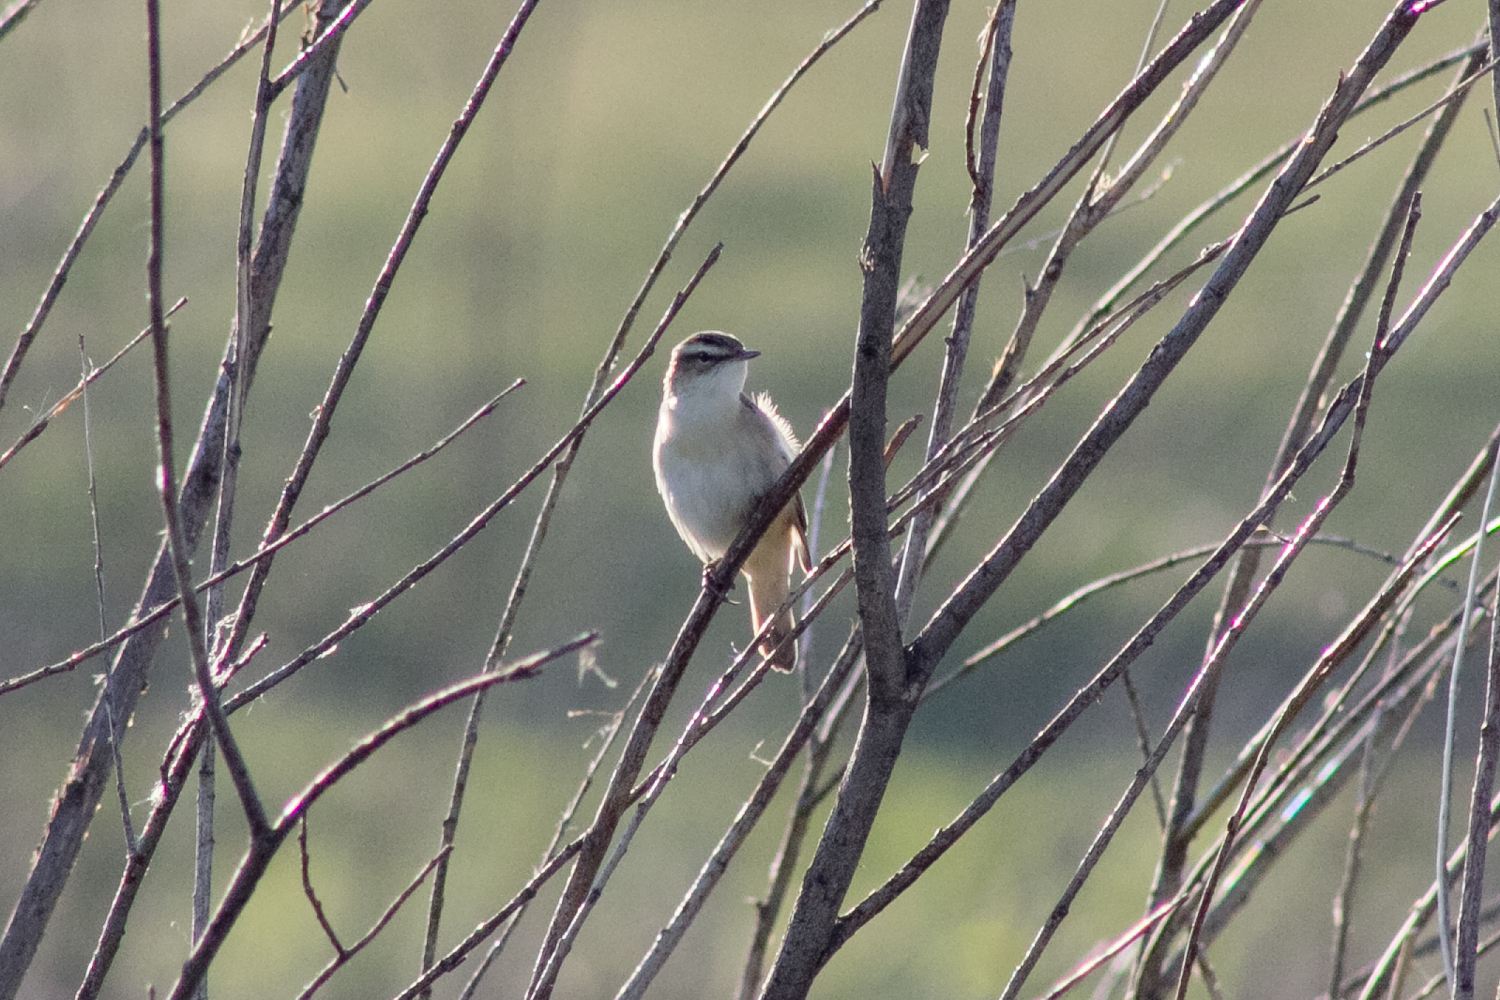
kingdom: Animalia
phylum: Chordata
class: Aves
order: Passeriformes
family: Acrocephalidae
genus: Acrocephalus
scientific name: Acrocephalus schoenobaenus
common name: Sedge warbler
